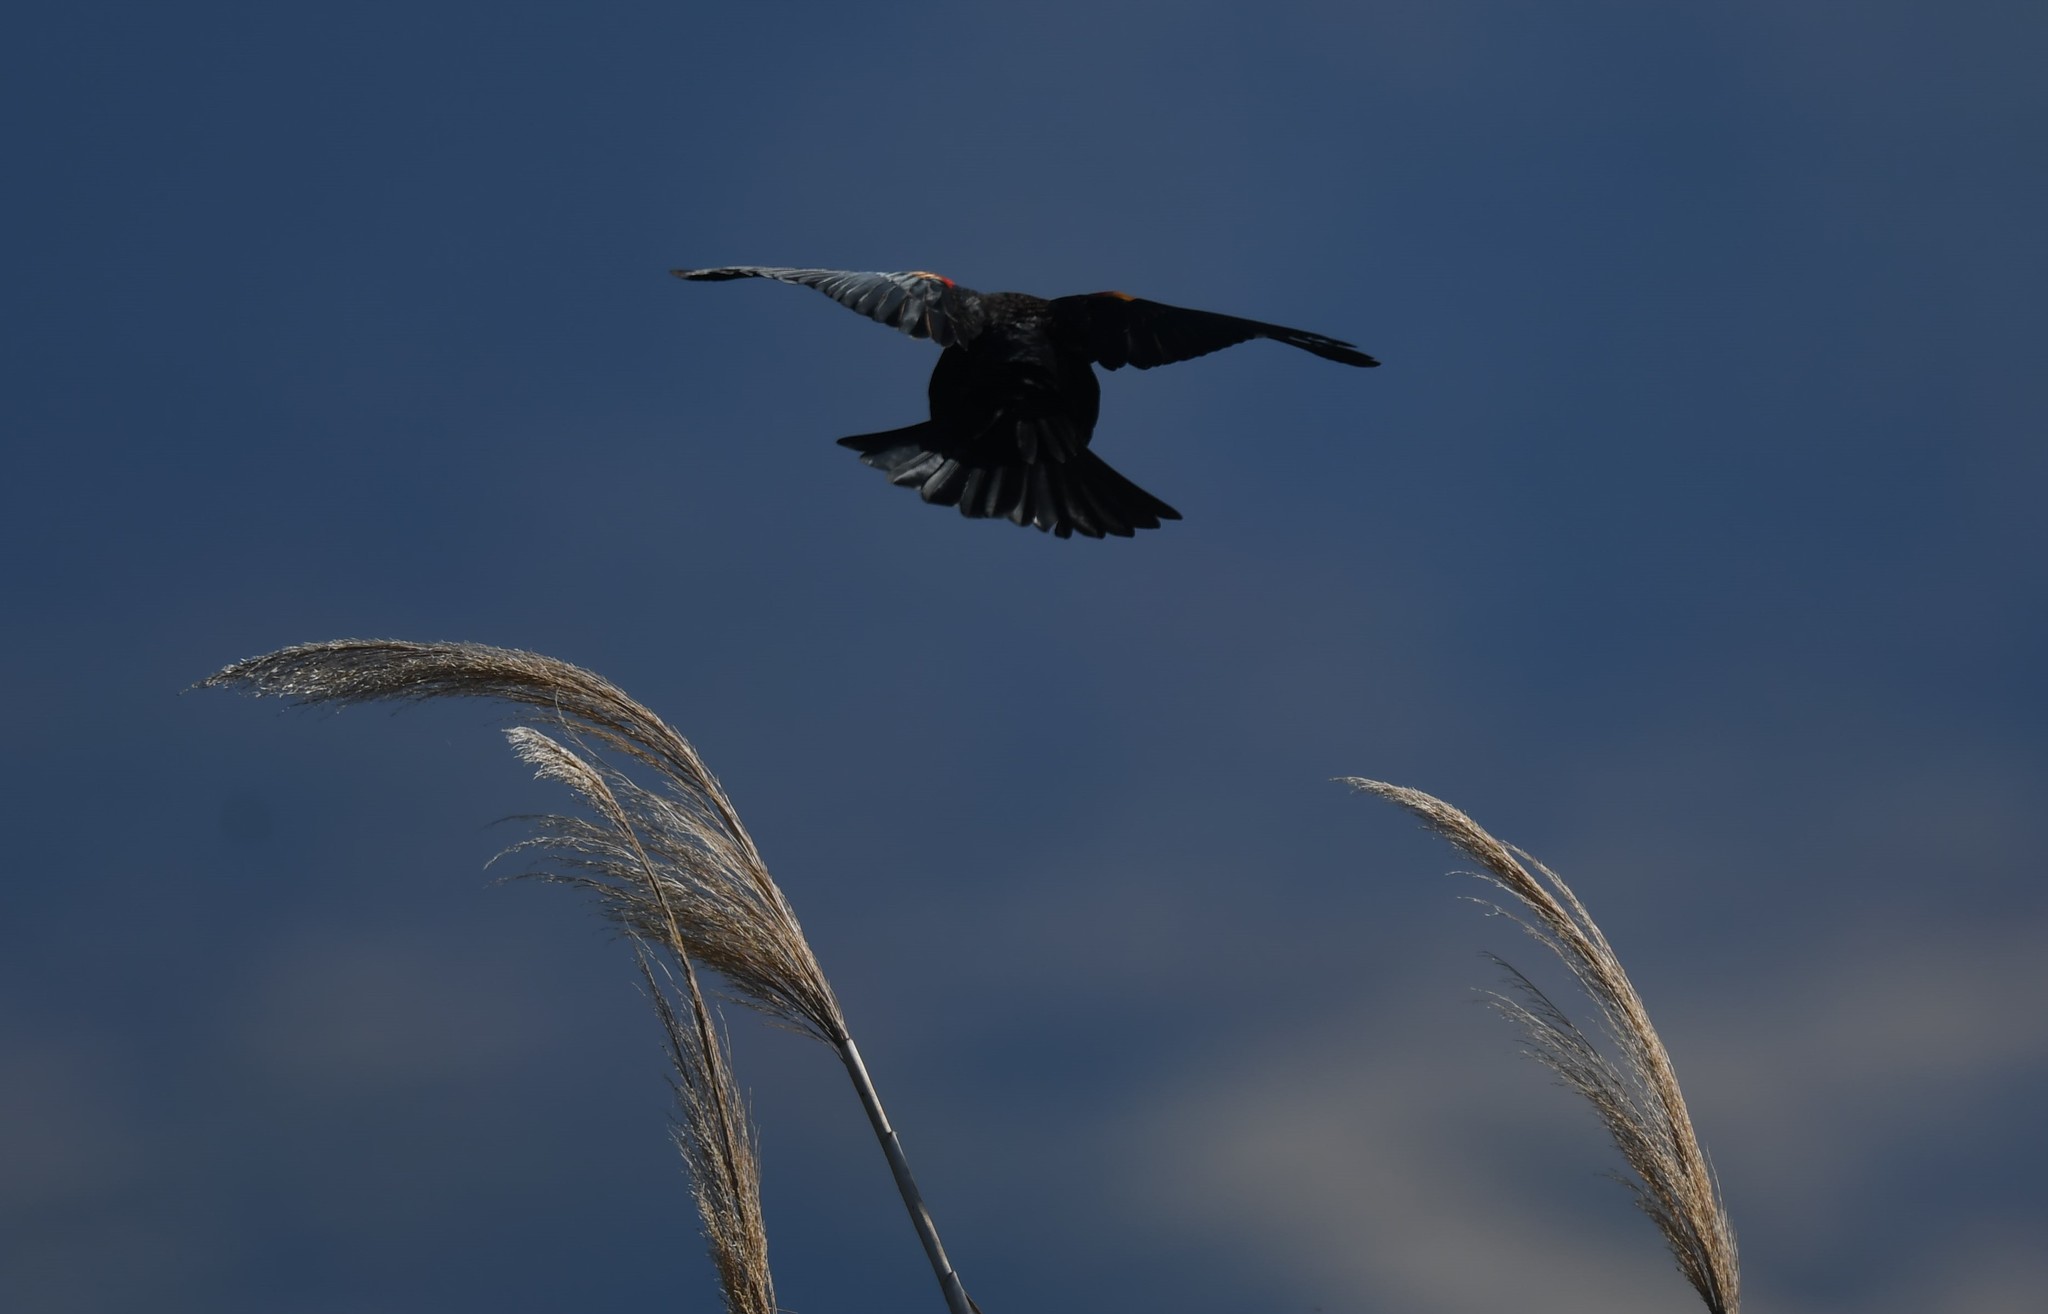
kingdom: Animalia
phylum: Chordata
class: Aves
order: Passeriformes
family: Icteridae
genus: Agelaius
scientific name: Agelaius phoeniceus
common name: Red-winged blackbird
